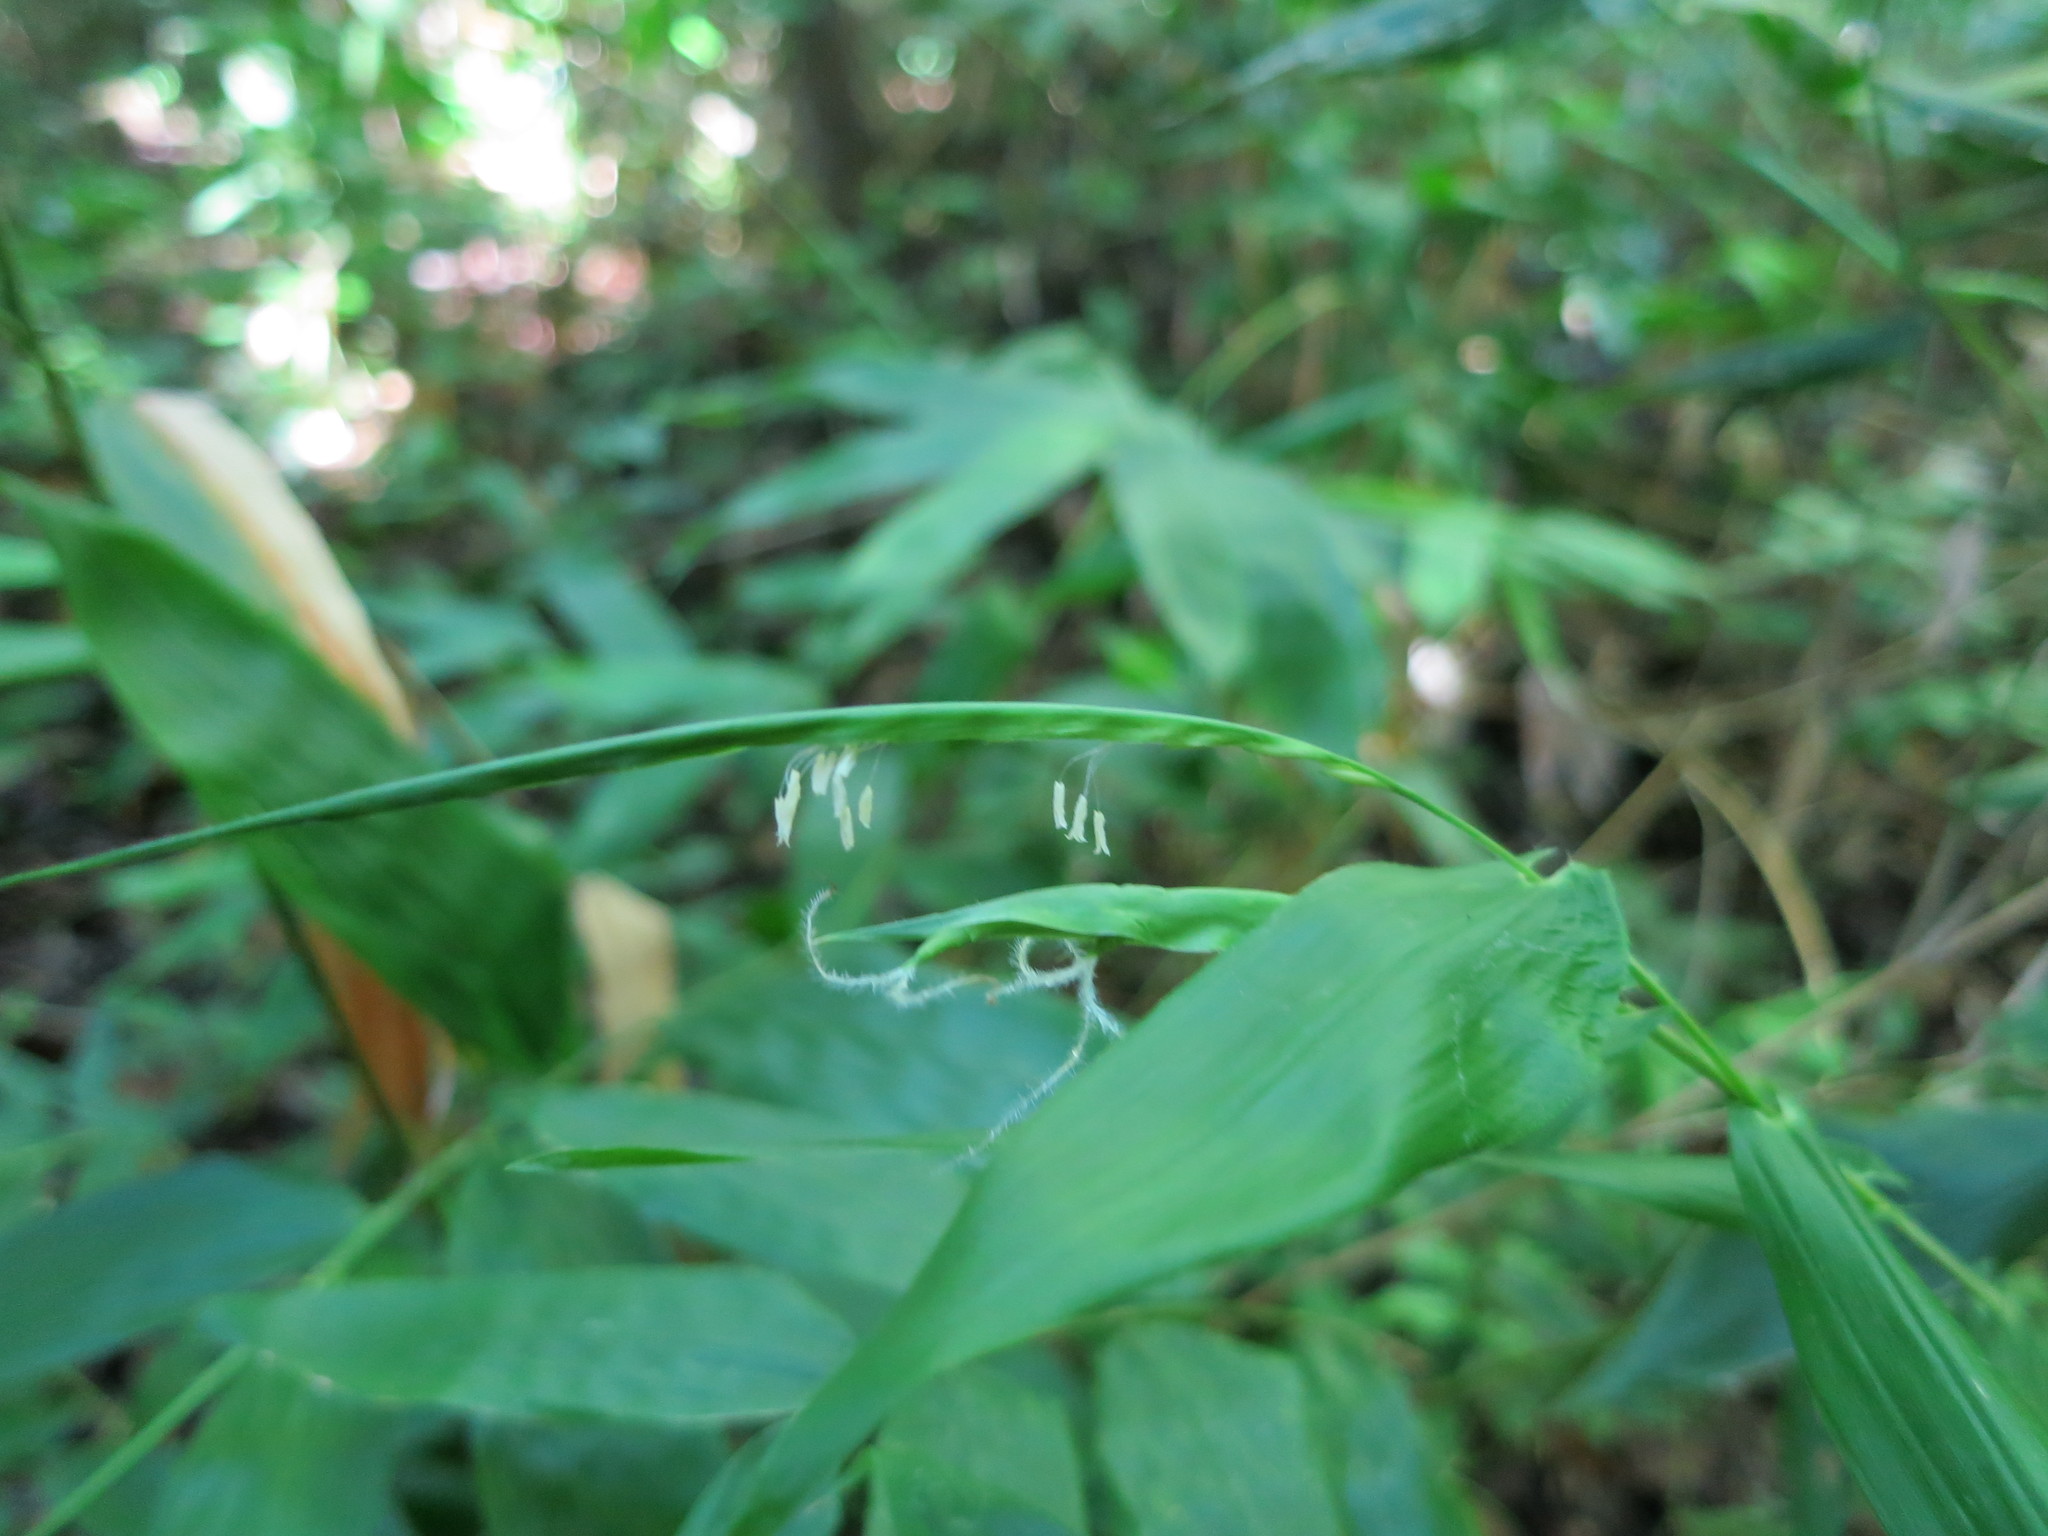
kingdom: Plantae
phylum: Tracheophyta
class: Liliopsida
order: Poales
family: Poaceae
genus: Humbertochloa
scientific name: Humbertochloa bambusiuscula
